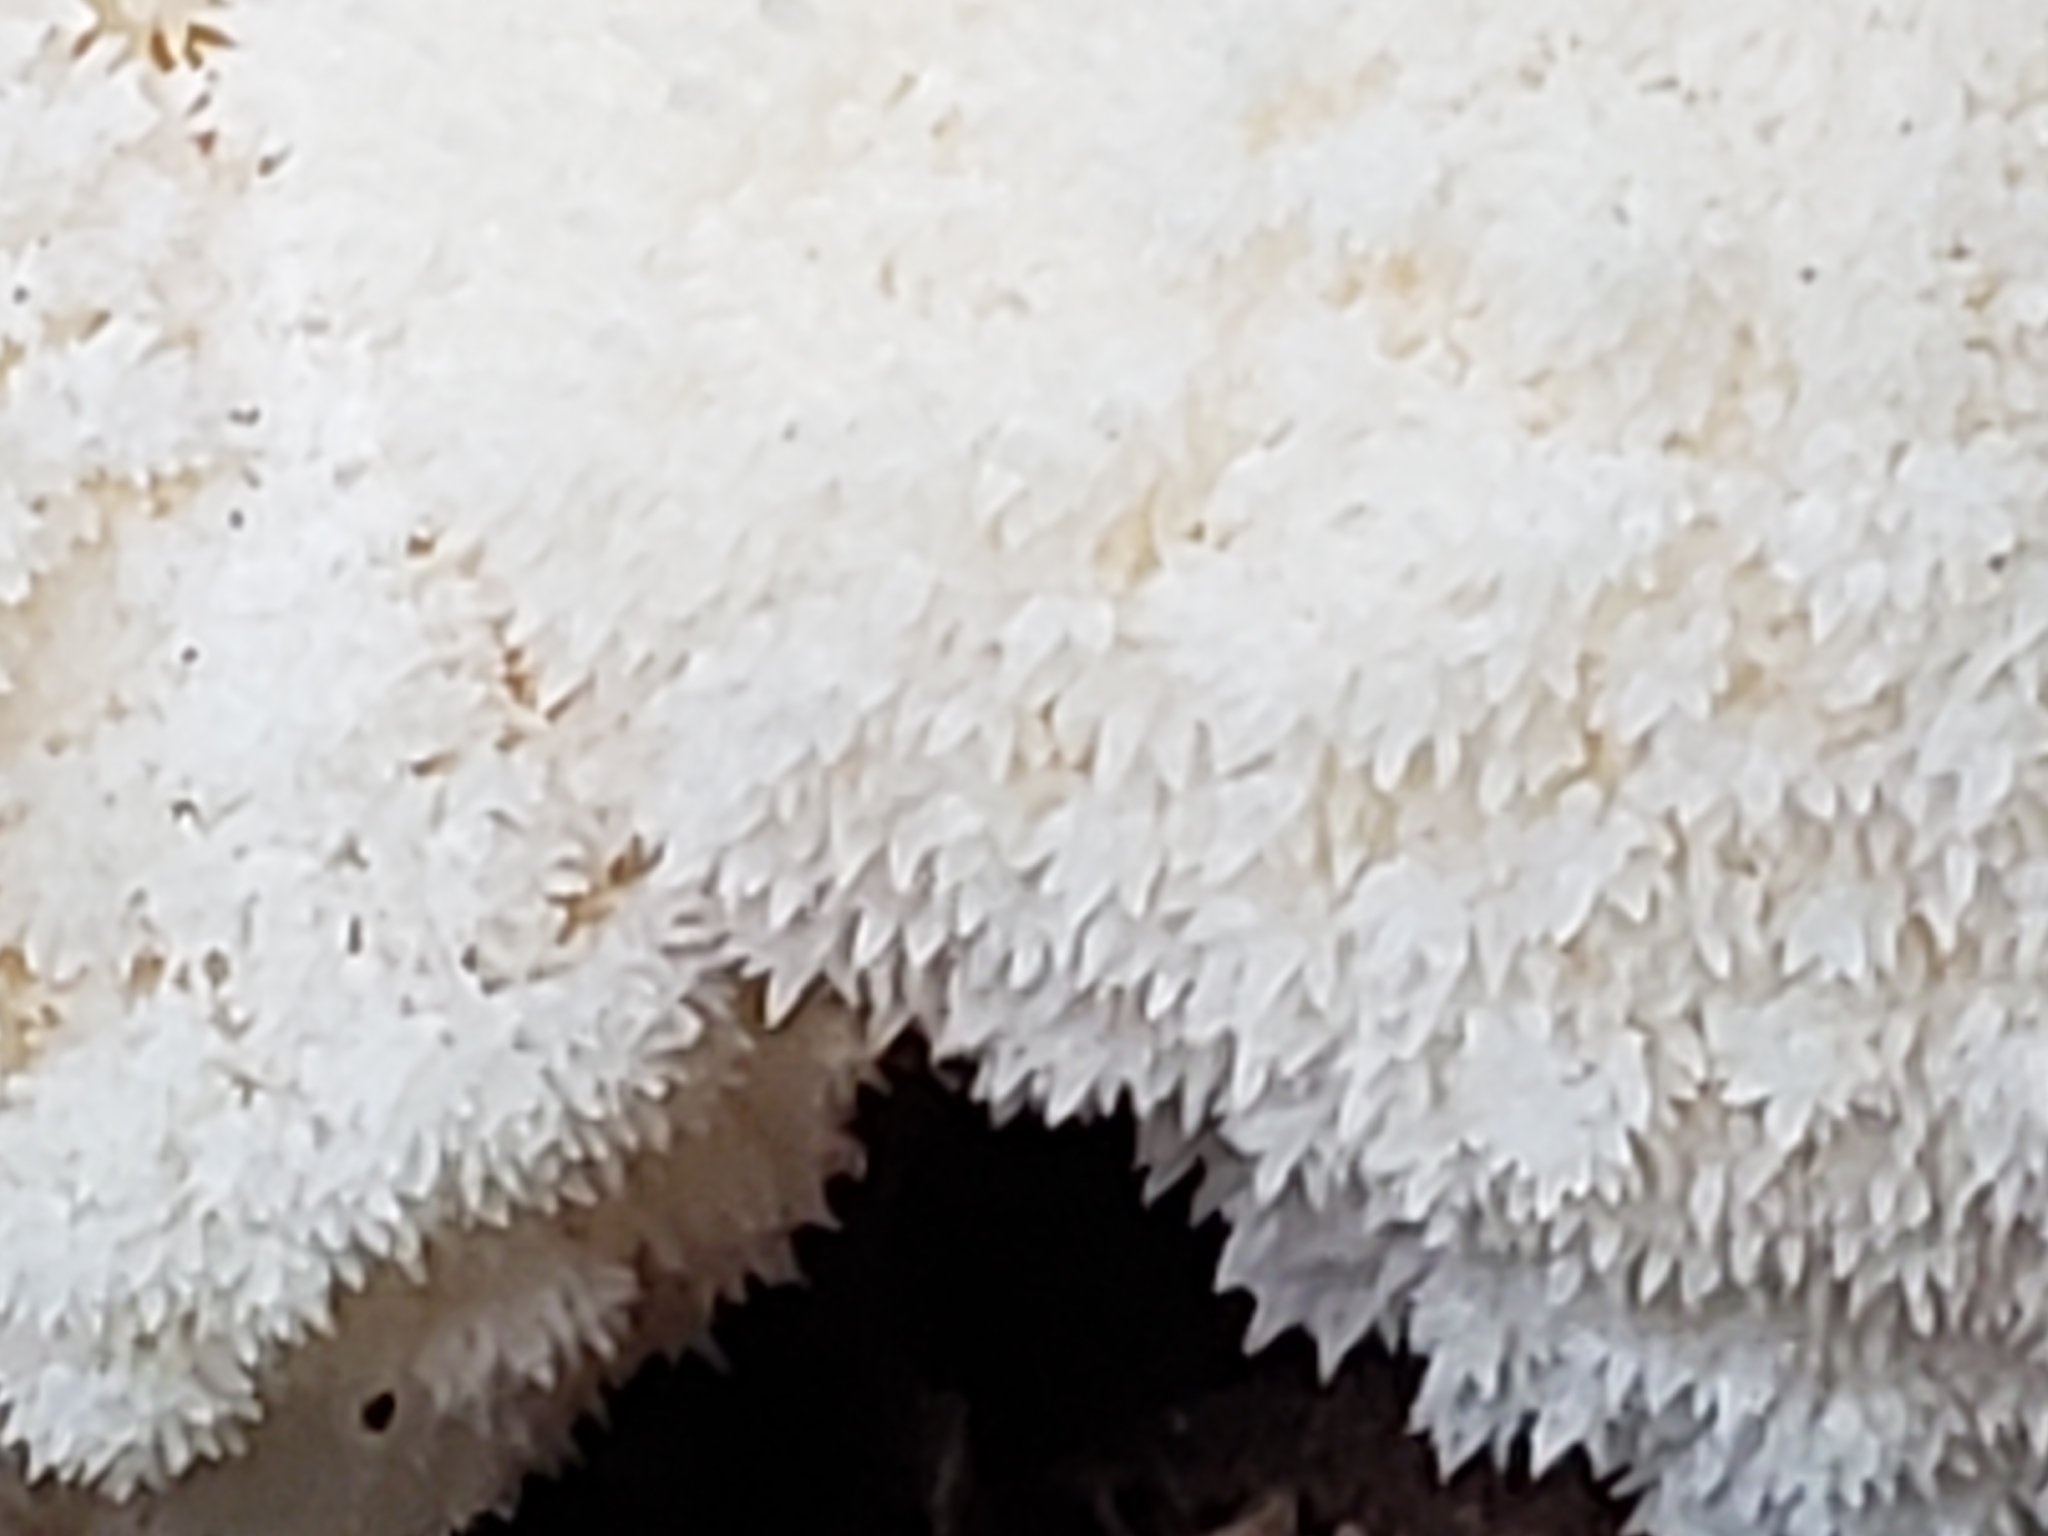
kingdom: Fungi
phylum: Basidiomycota
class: Agaricomycetes
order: Russulales
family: Hericiaceae
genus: Hericium
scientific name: Hericium erinaceus
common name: Bearded tooth
